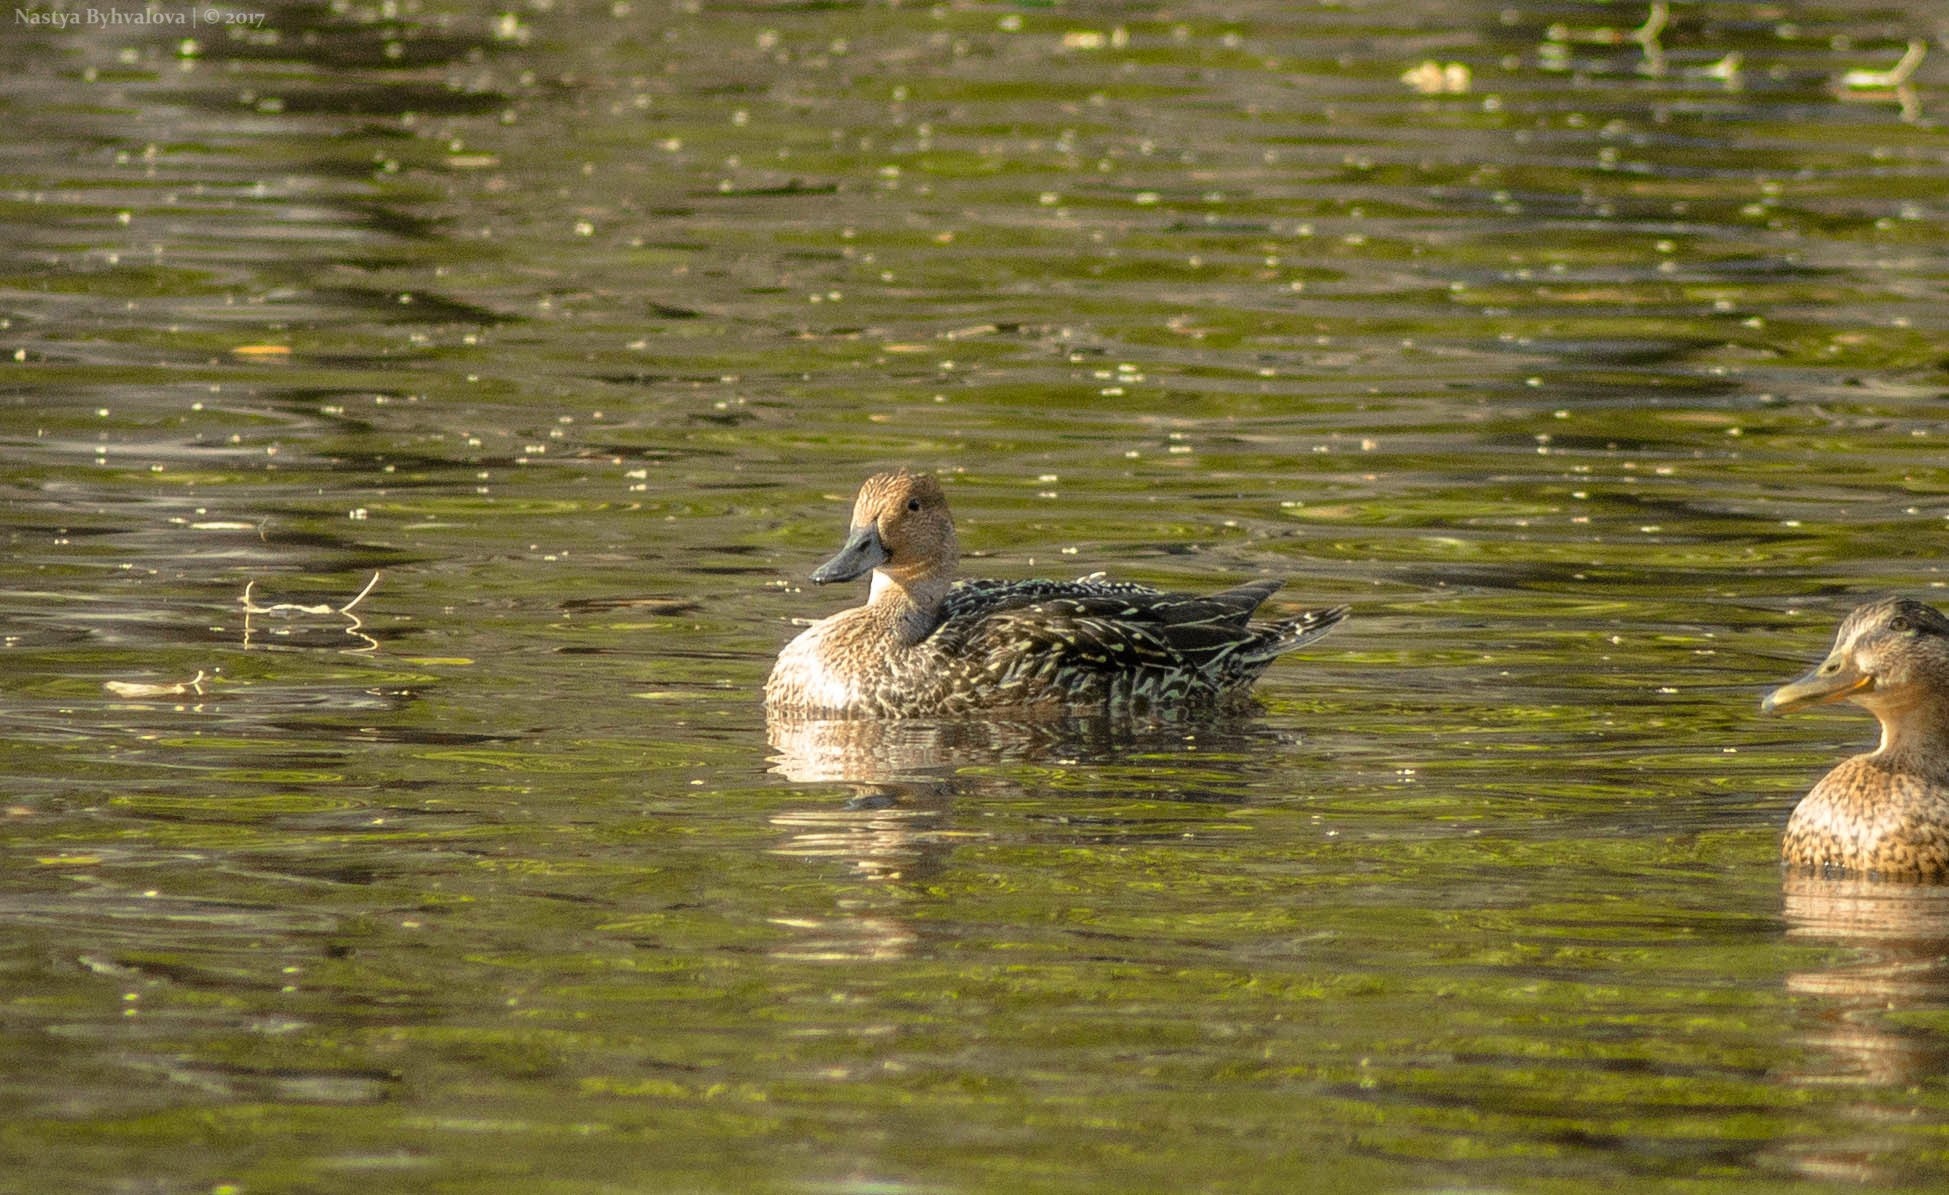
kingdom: Animalia
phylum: Chordata
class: Aves
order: Anseriformes
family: Anatidae
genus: Anas
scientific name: Anas acuta
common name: Northern pintail
